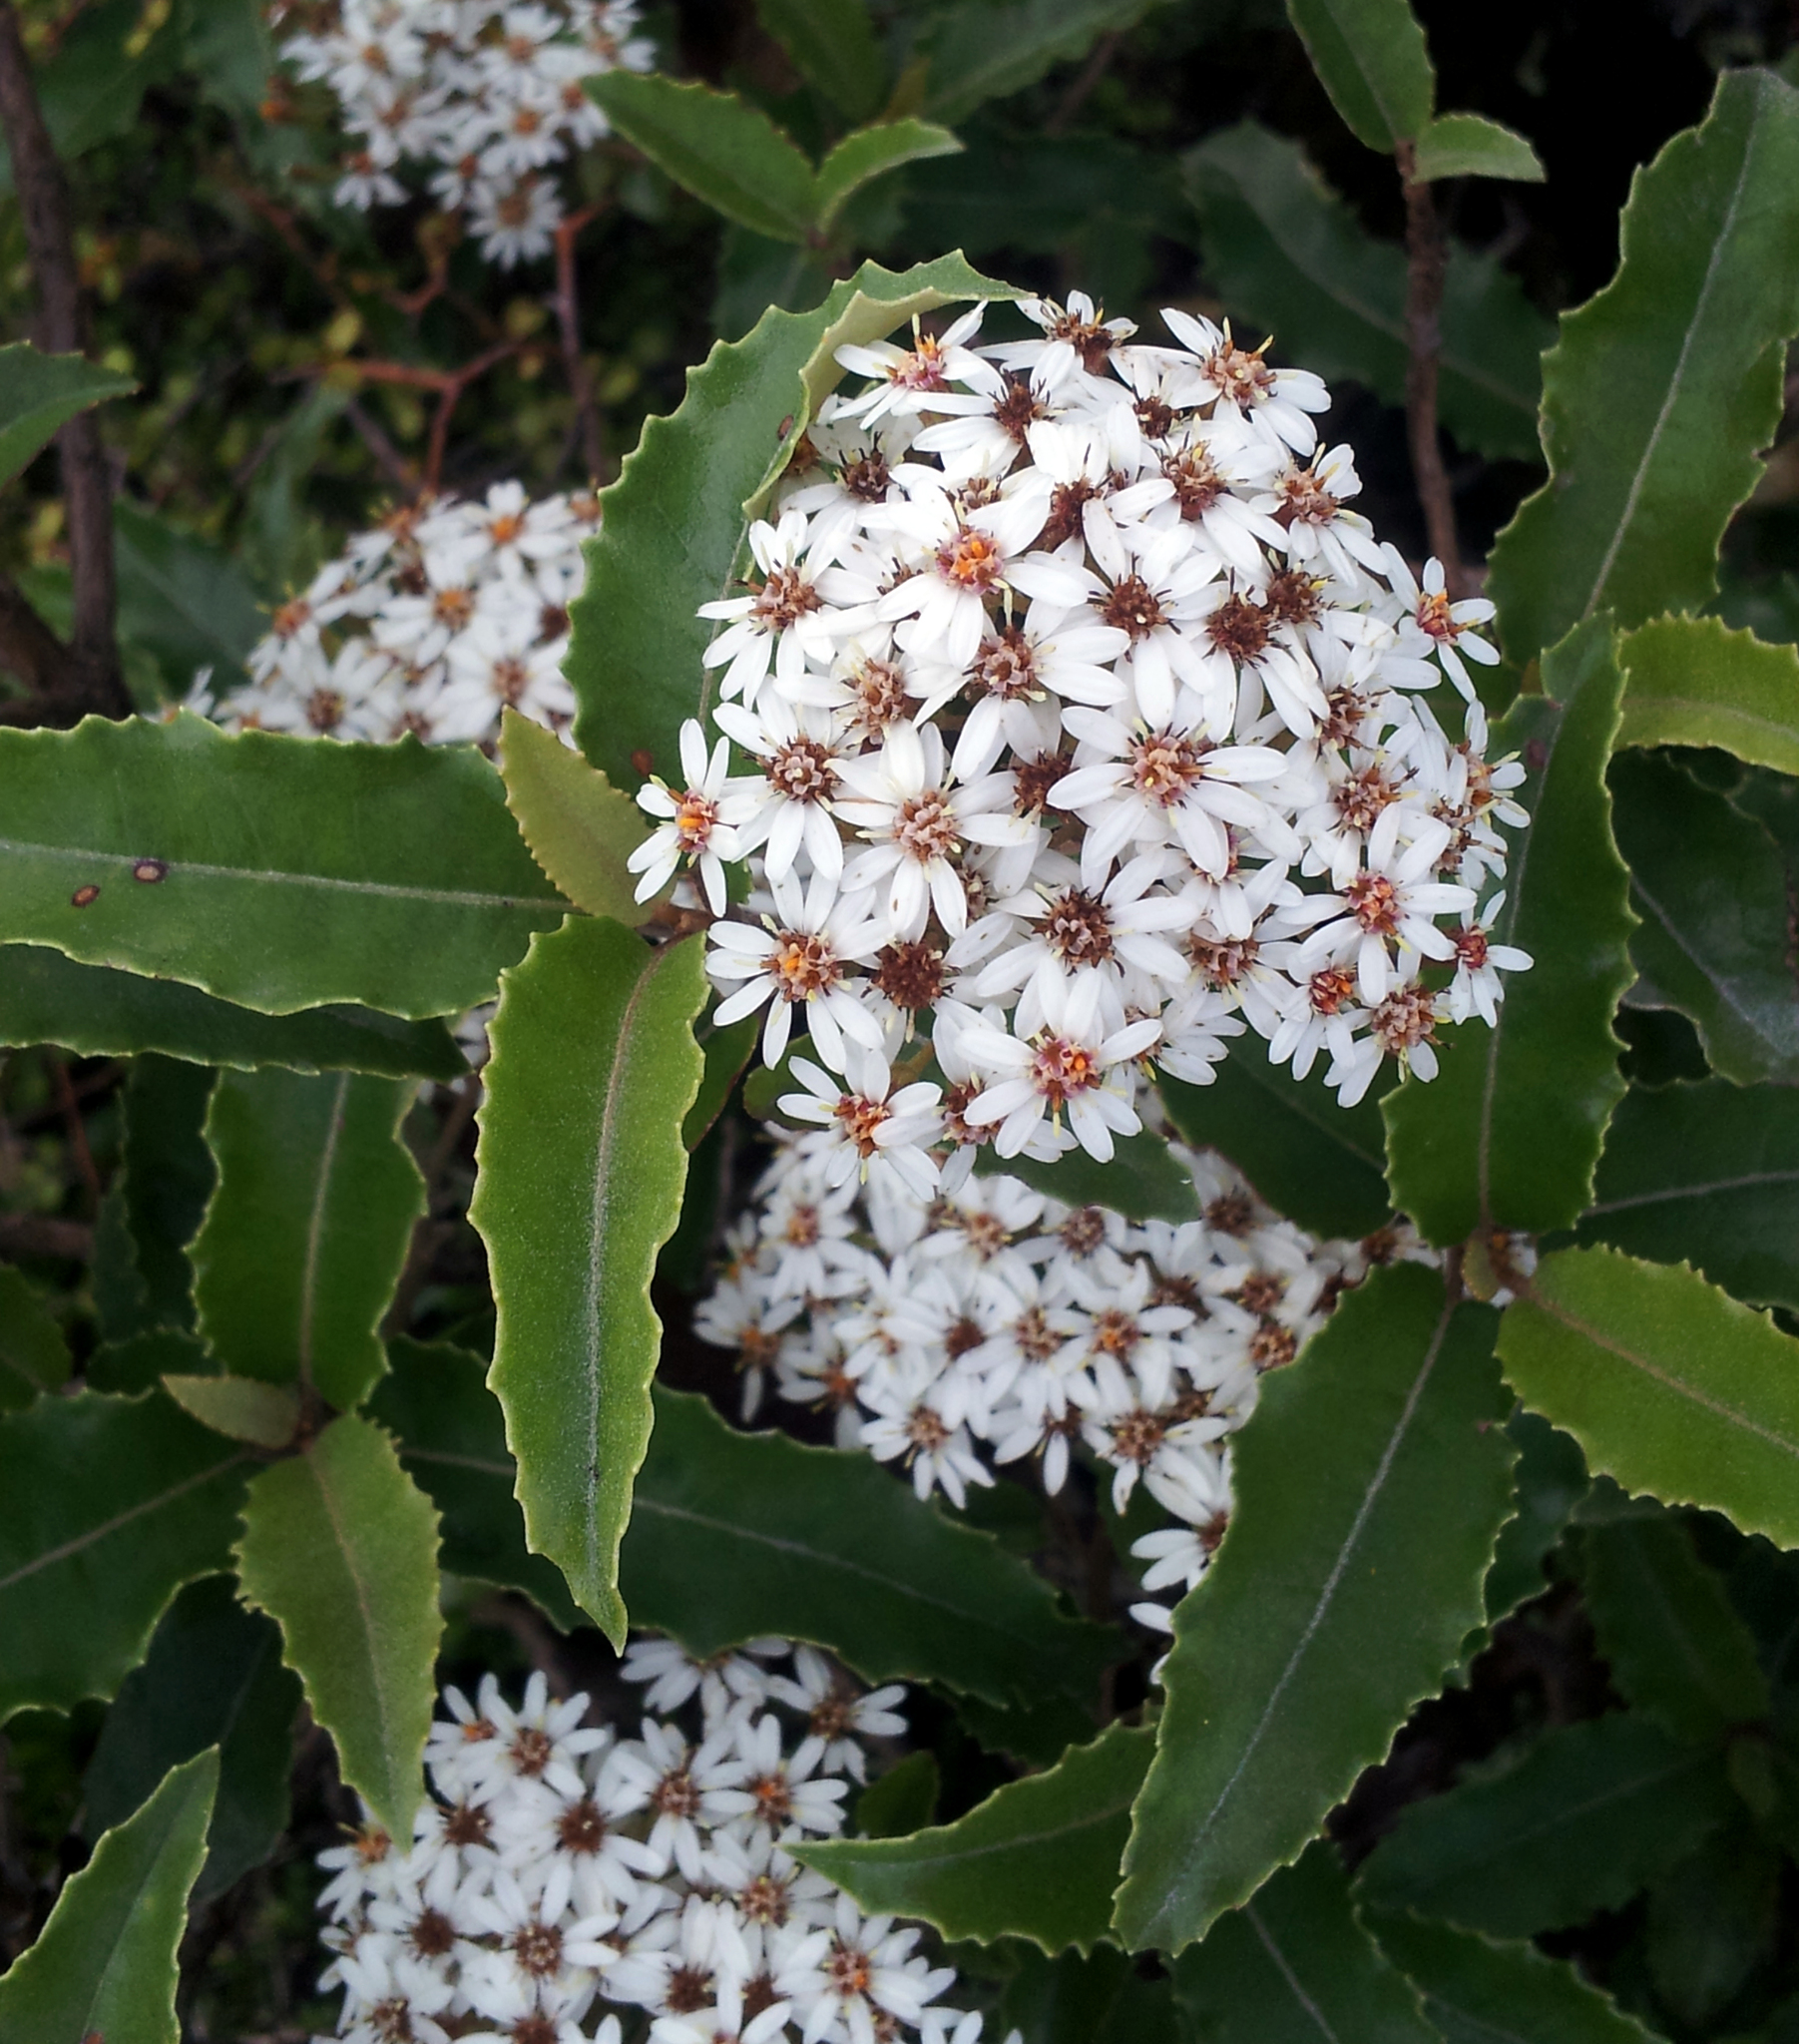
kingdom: Plantae
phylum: Tracheophyta
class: Magnoliopsida
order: Asterales
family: Asteraceae
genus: Olearia
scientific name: Olearia ilicifolia
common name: Maori-holly
